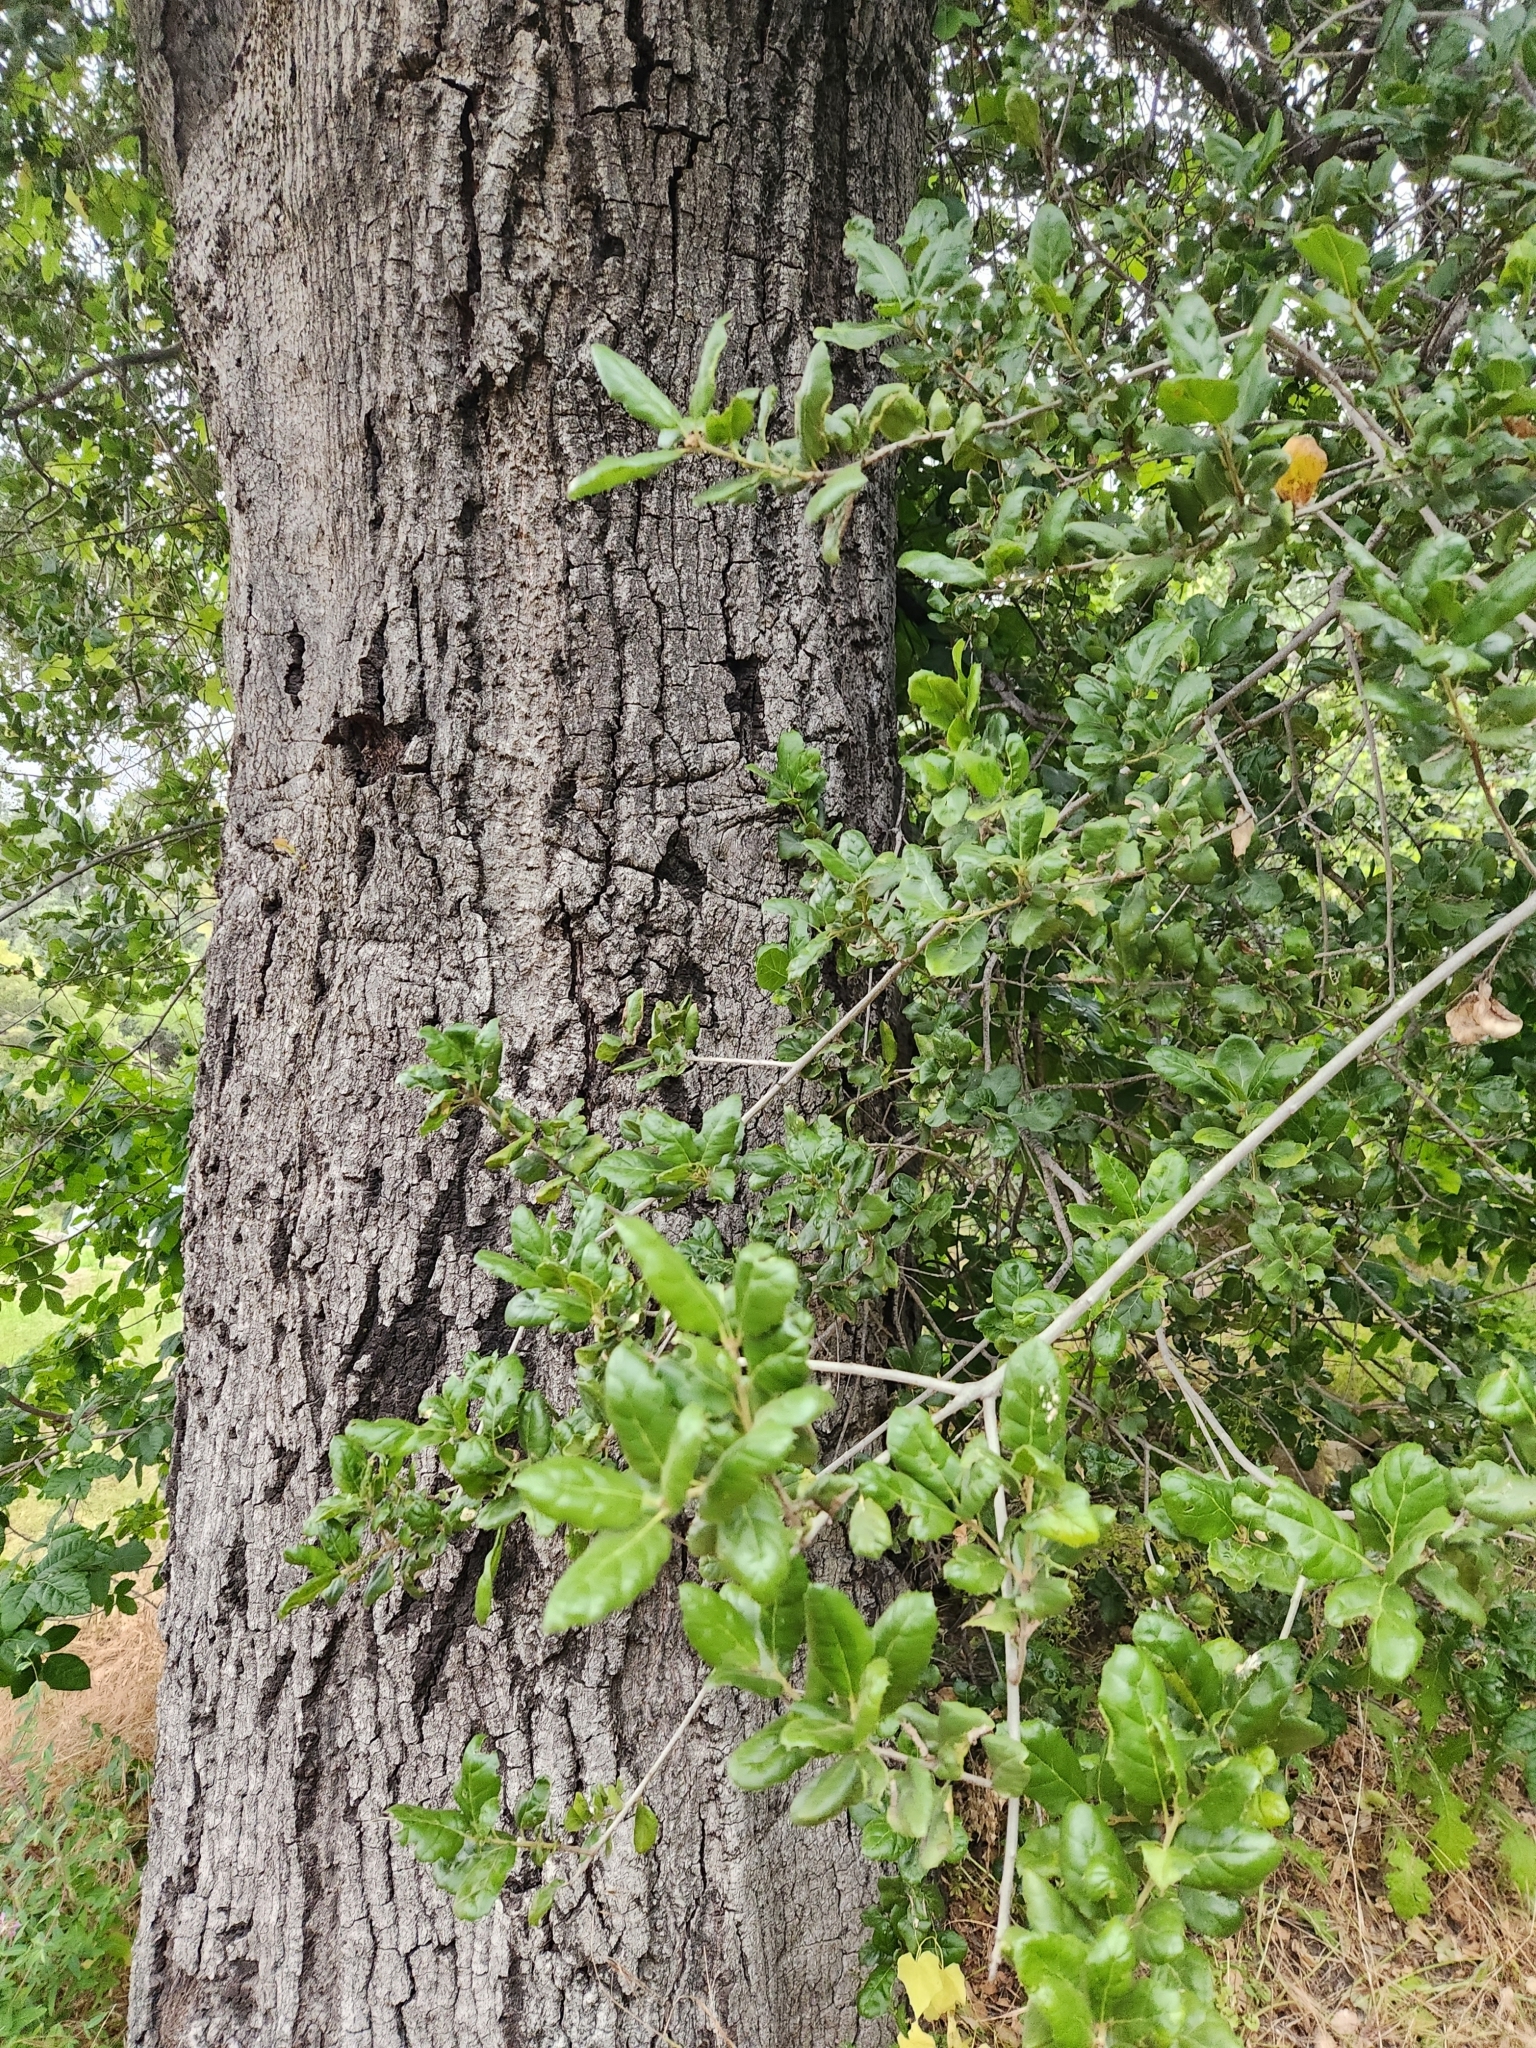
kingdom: Plantae
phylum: Tracheophyta
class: Magnoliopsida
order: Fagales
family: Fagaceae
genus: Quercus
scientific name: Quercus agrifolia
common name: California live oak
